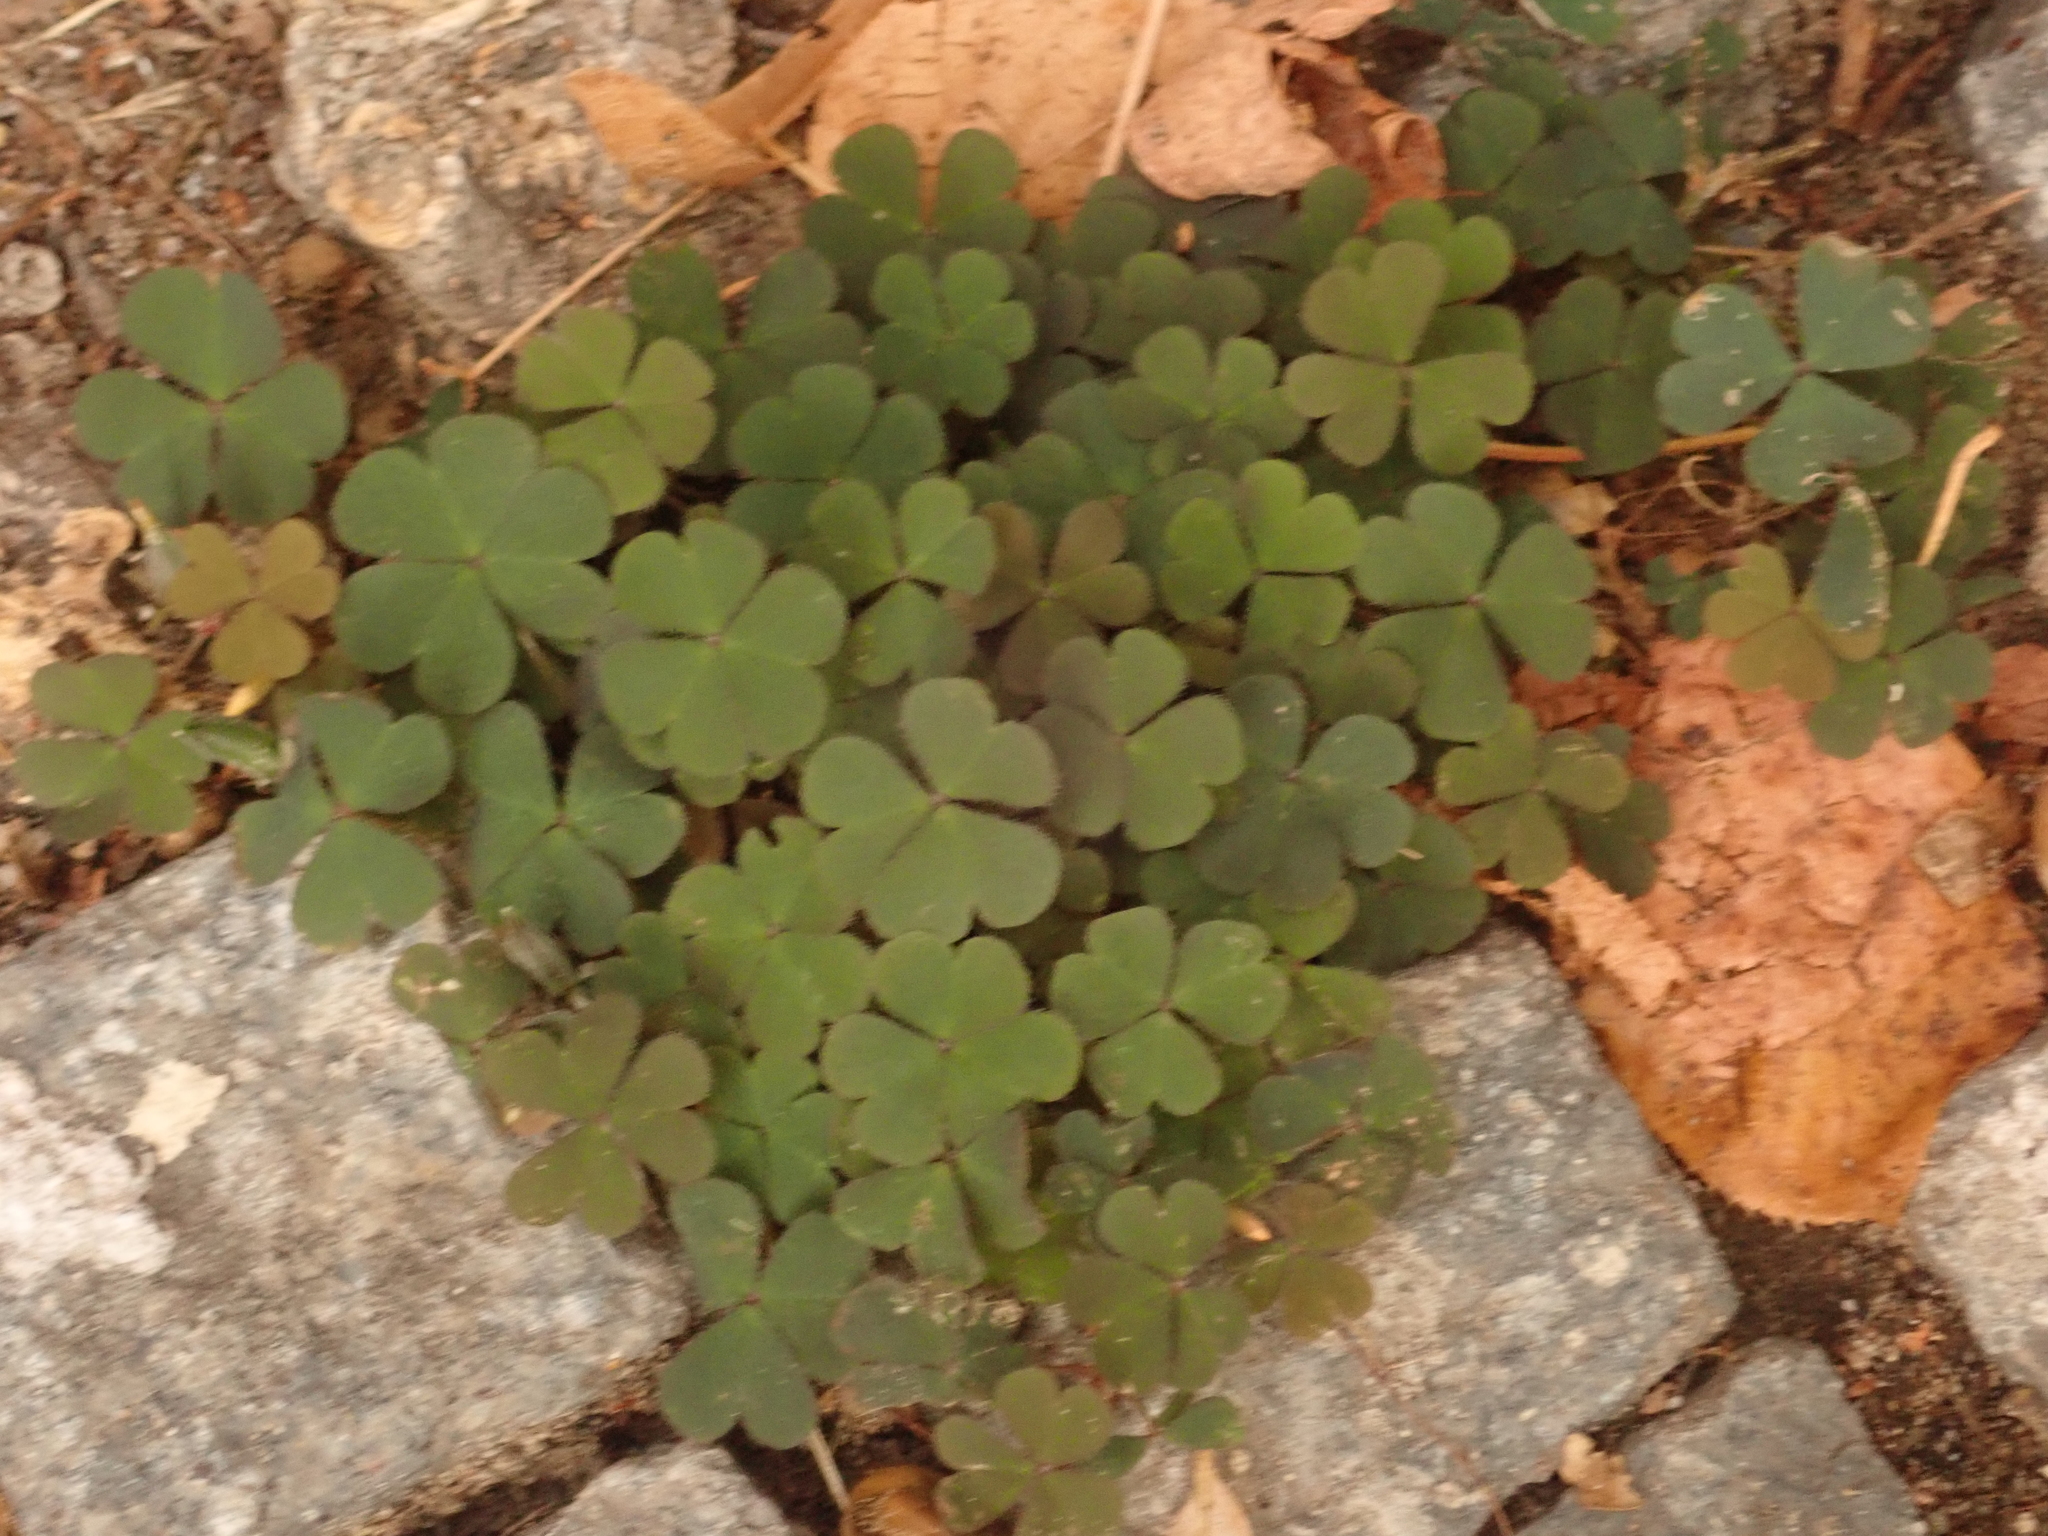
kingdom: Plantae
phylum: Tracheophyta
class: Magnoliopsida
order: Oxalidales
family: Oxalidaceae
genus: Oxalis
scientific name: Oxalis corniculata
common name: Procumbent yellow-sorrel
